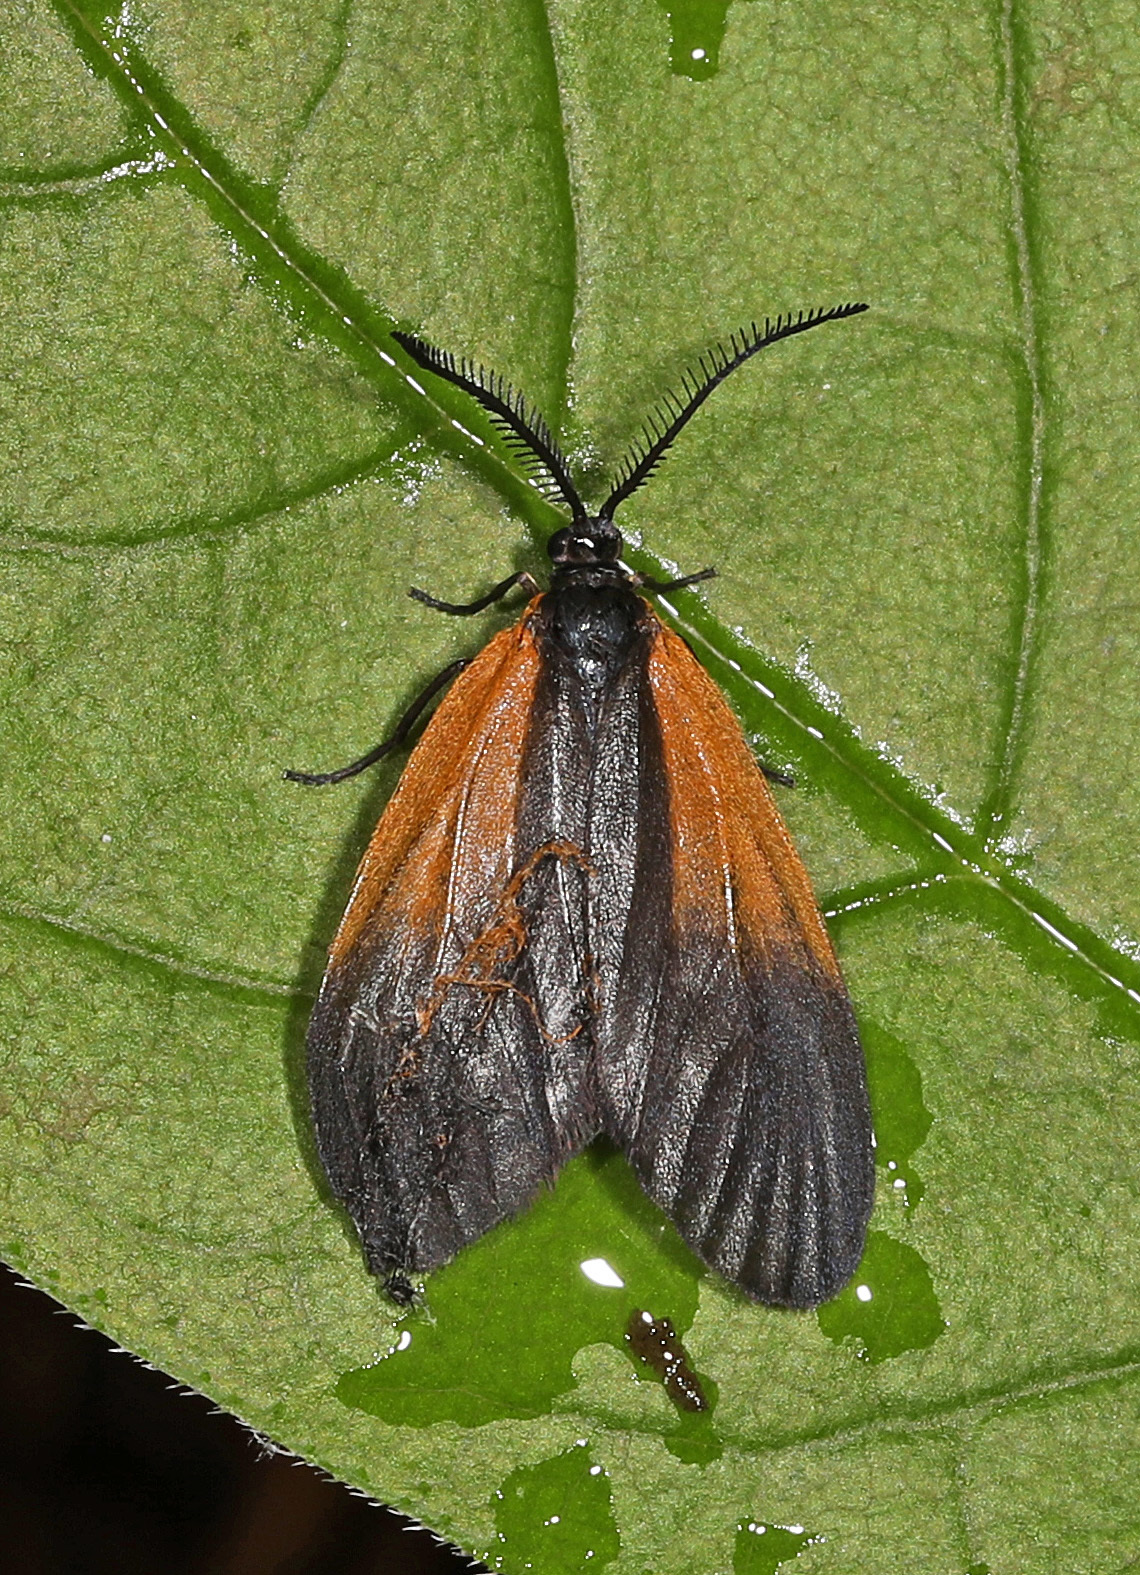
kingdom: Animalia
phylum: Arthropoda
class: Insecta
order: Lepidoptera
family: Zygaenidae
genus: Malthaca
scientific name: Malthaca dimidiata
